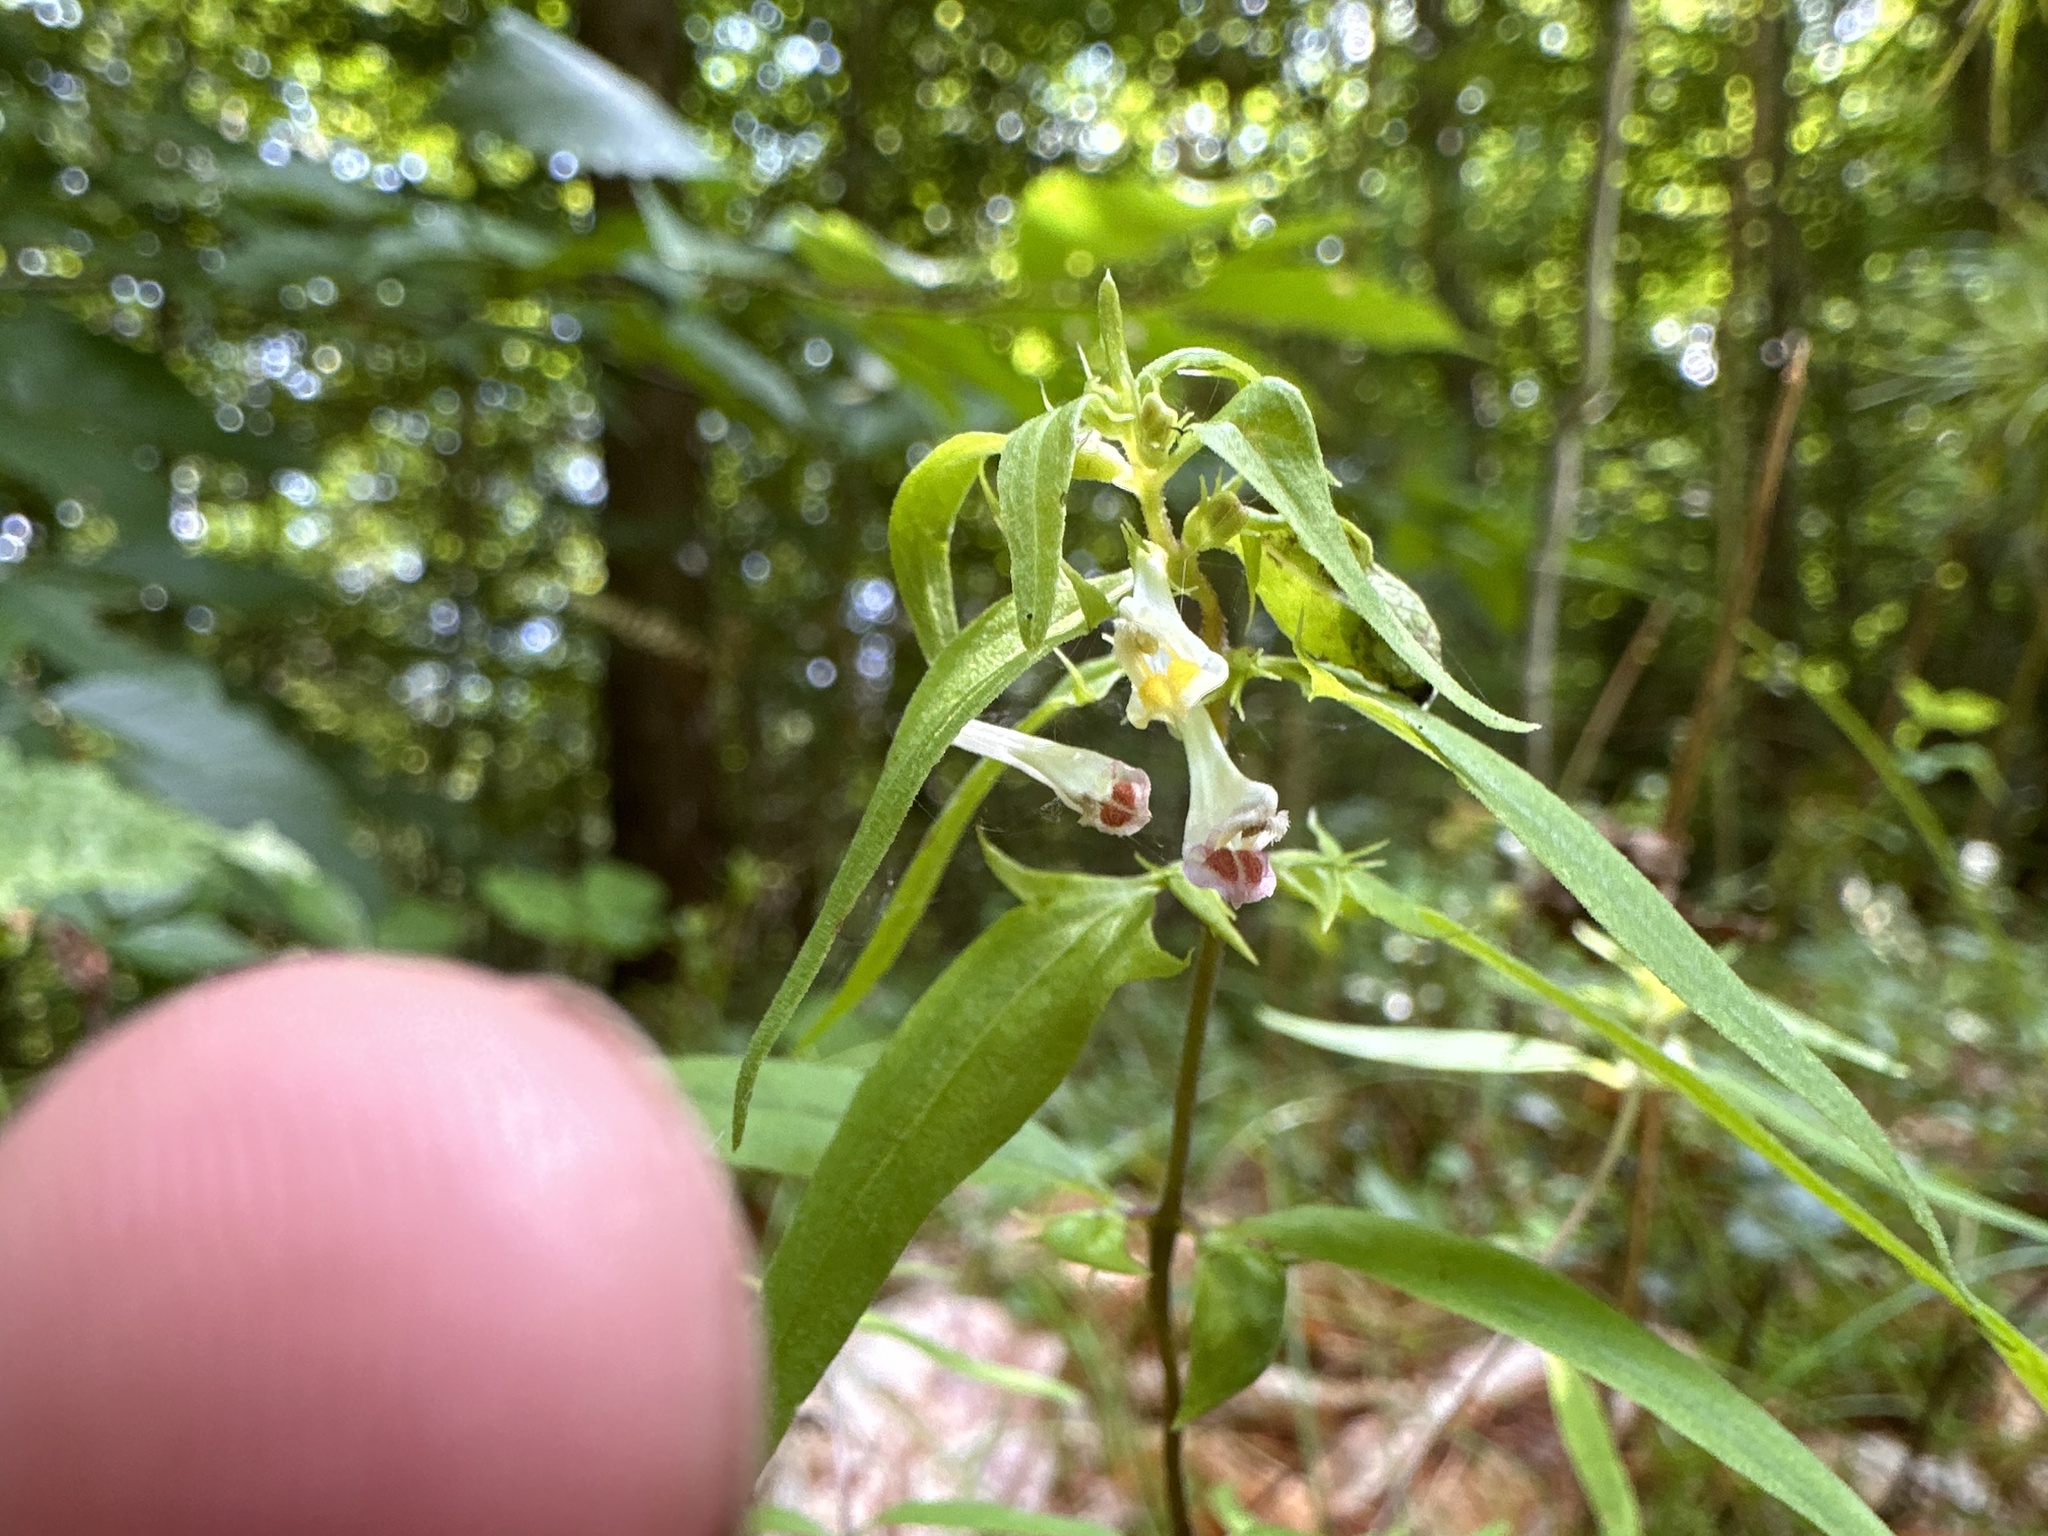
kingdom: Plantae
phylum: Tracheophyta
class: Magnoliopsida
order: Lamiales
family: Orobanchaceae
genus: Melampyrum
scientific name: Melampyrum lineare
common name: American cow-wheat
